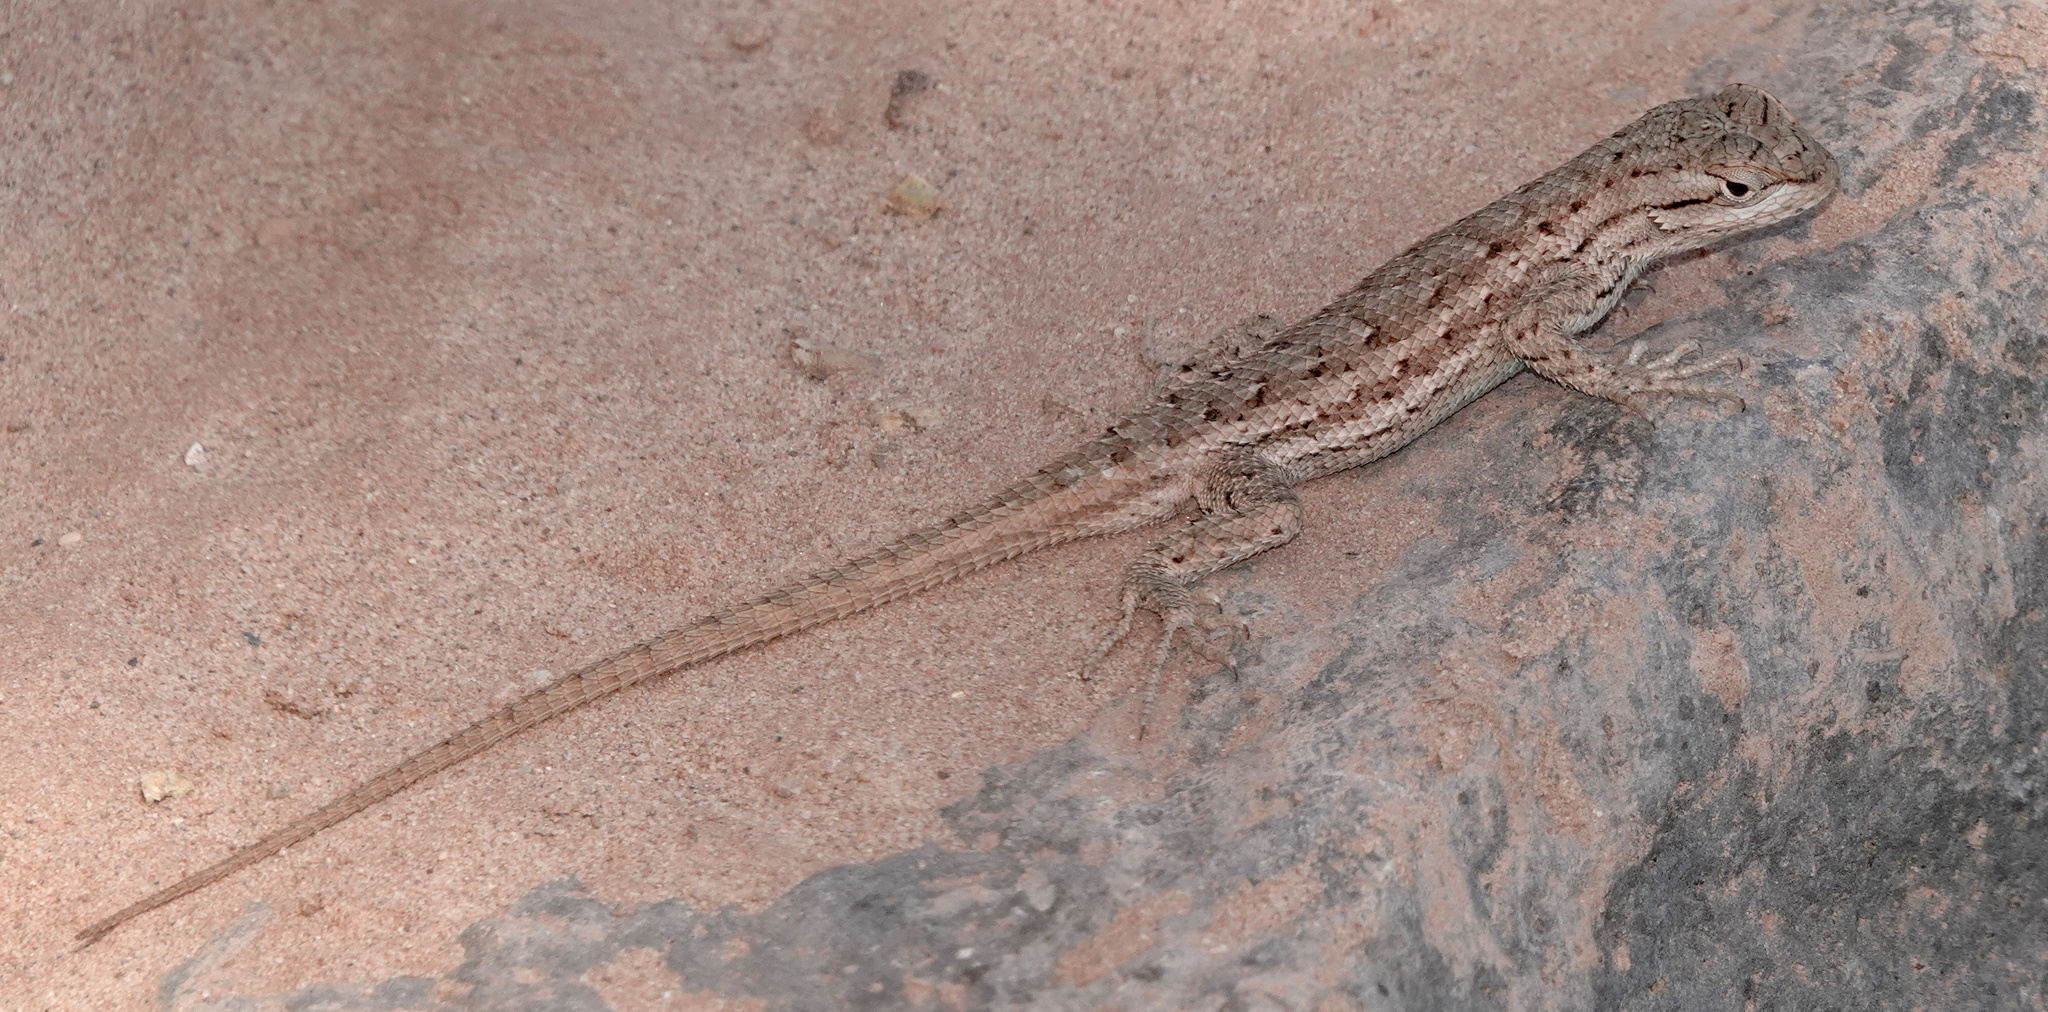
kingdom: Animalia
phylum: Chordata
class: Squamata
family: Phrynosomatidae
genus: Sceloporus
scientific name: Sceloporus tristichus
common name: Plateau fence lizard
